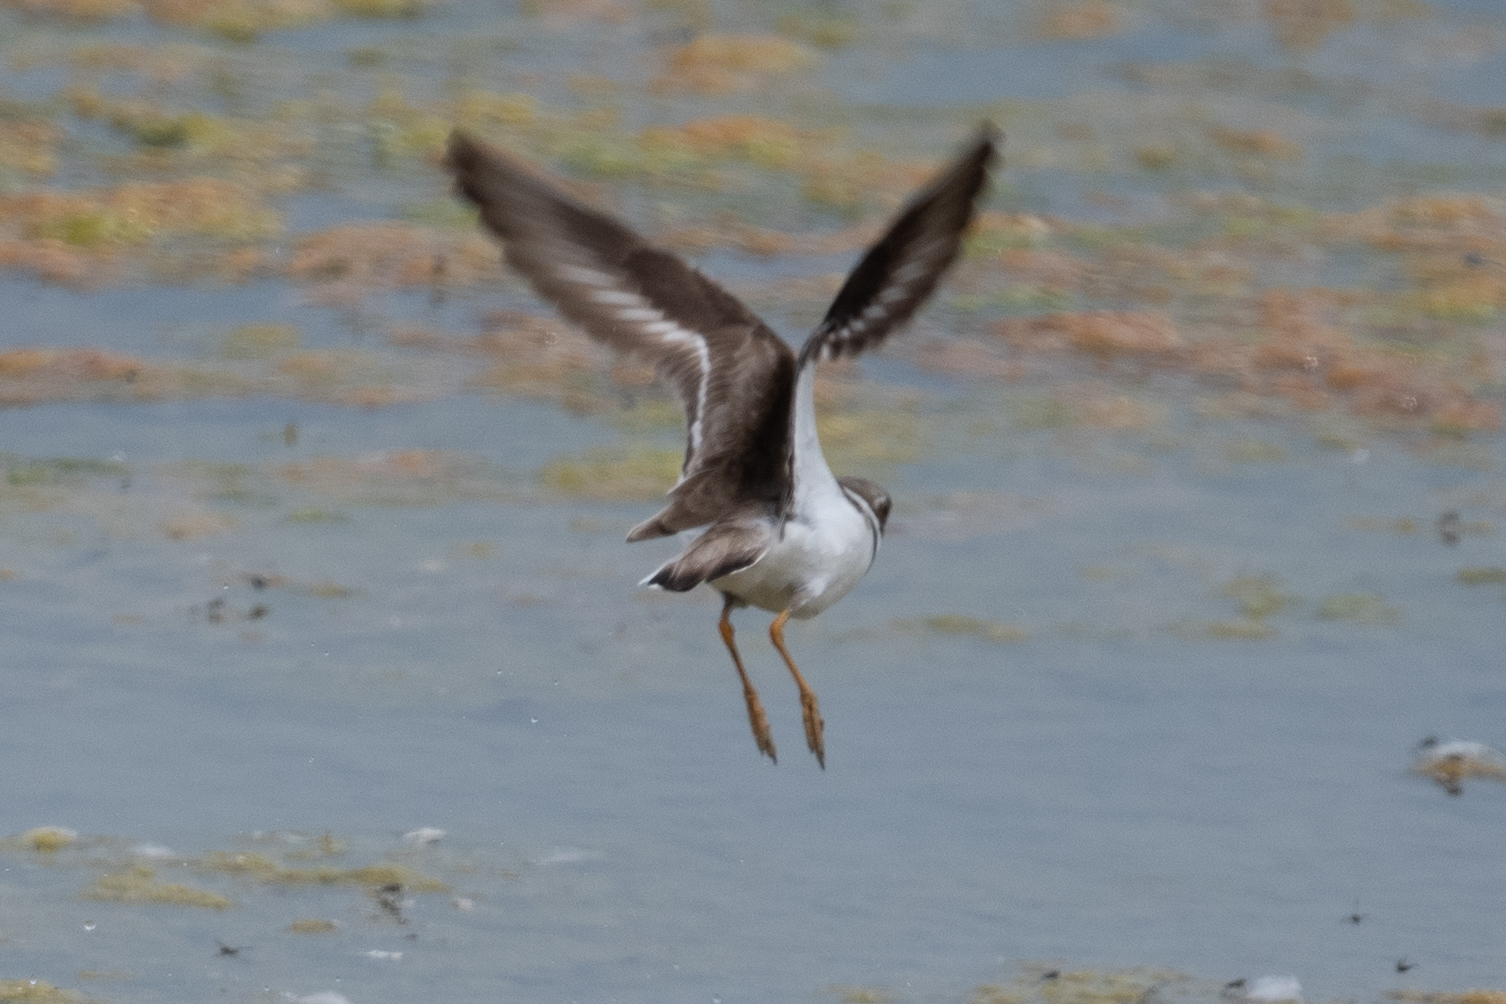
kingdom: Animalia
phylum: Chordata
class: Aves
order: Charadriiformes
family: Charadriidae
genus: Charadrius
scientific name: Charadrius semipalmatus
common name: Semipalmated plover
